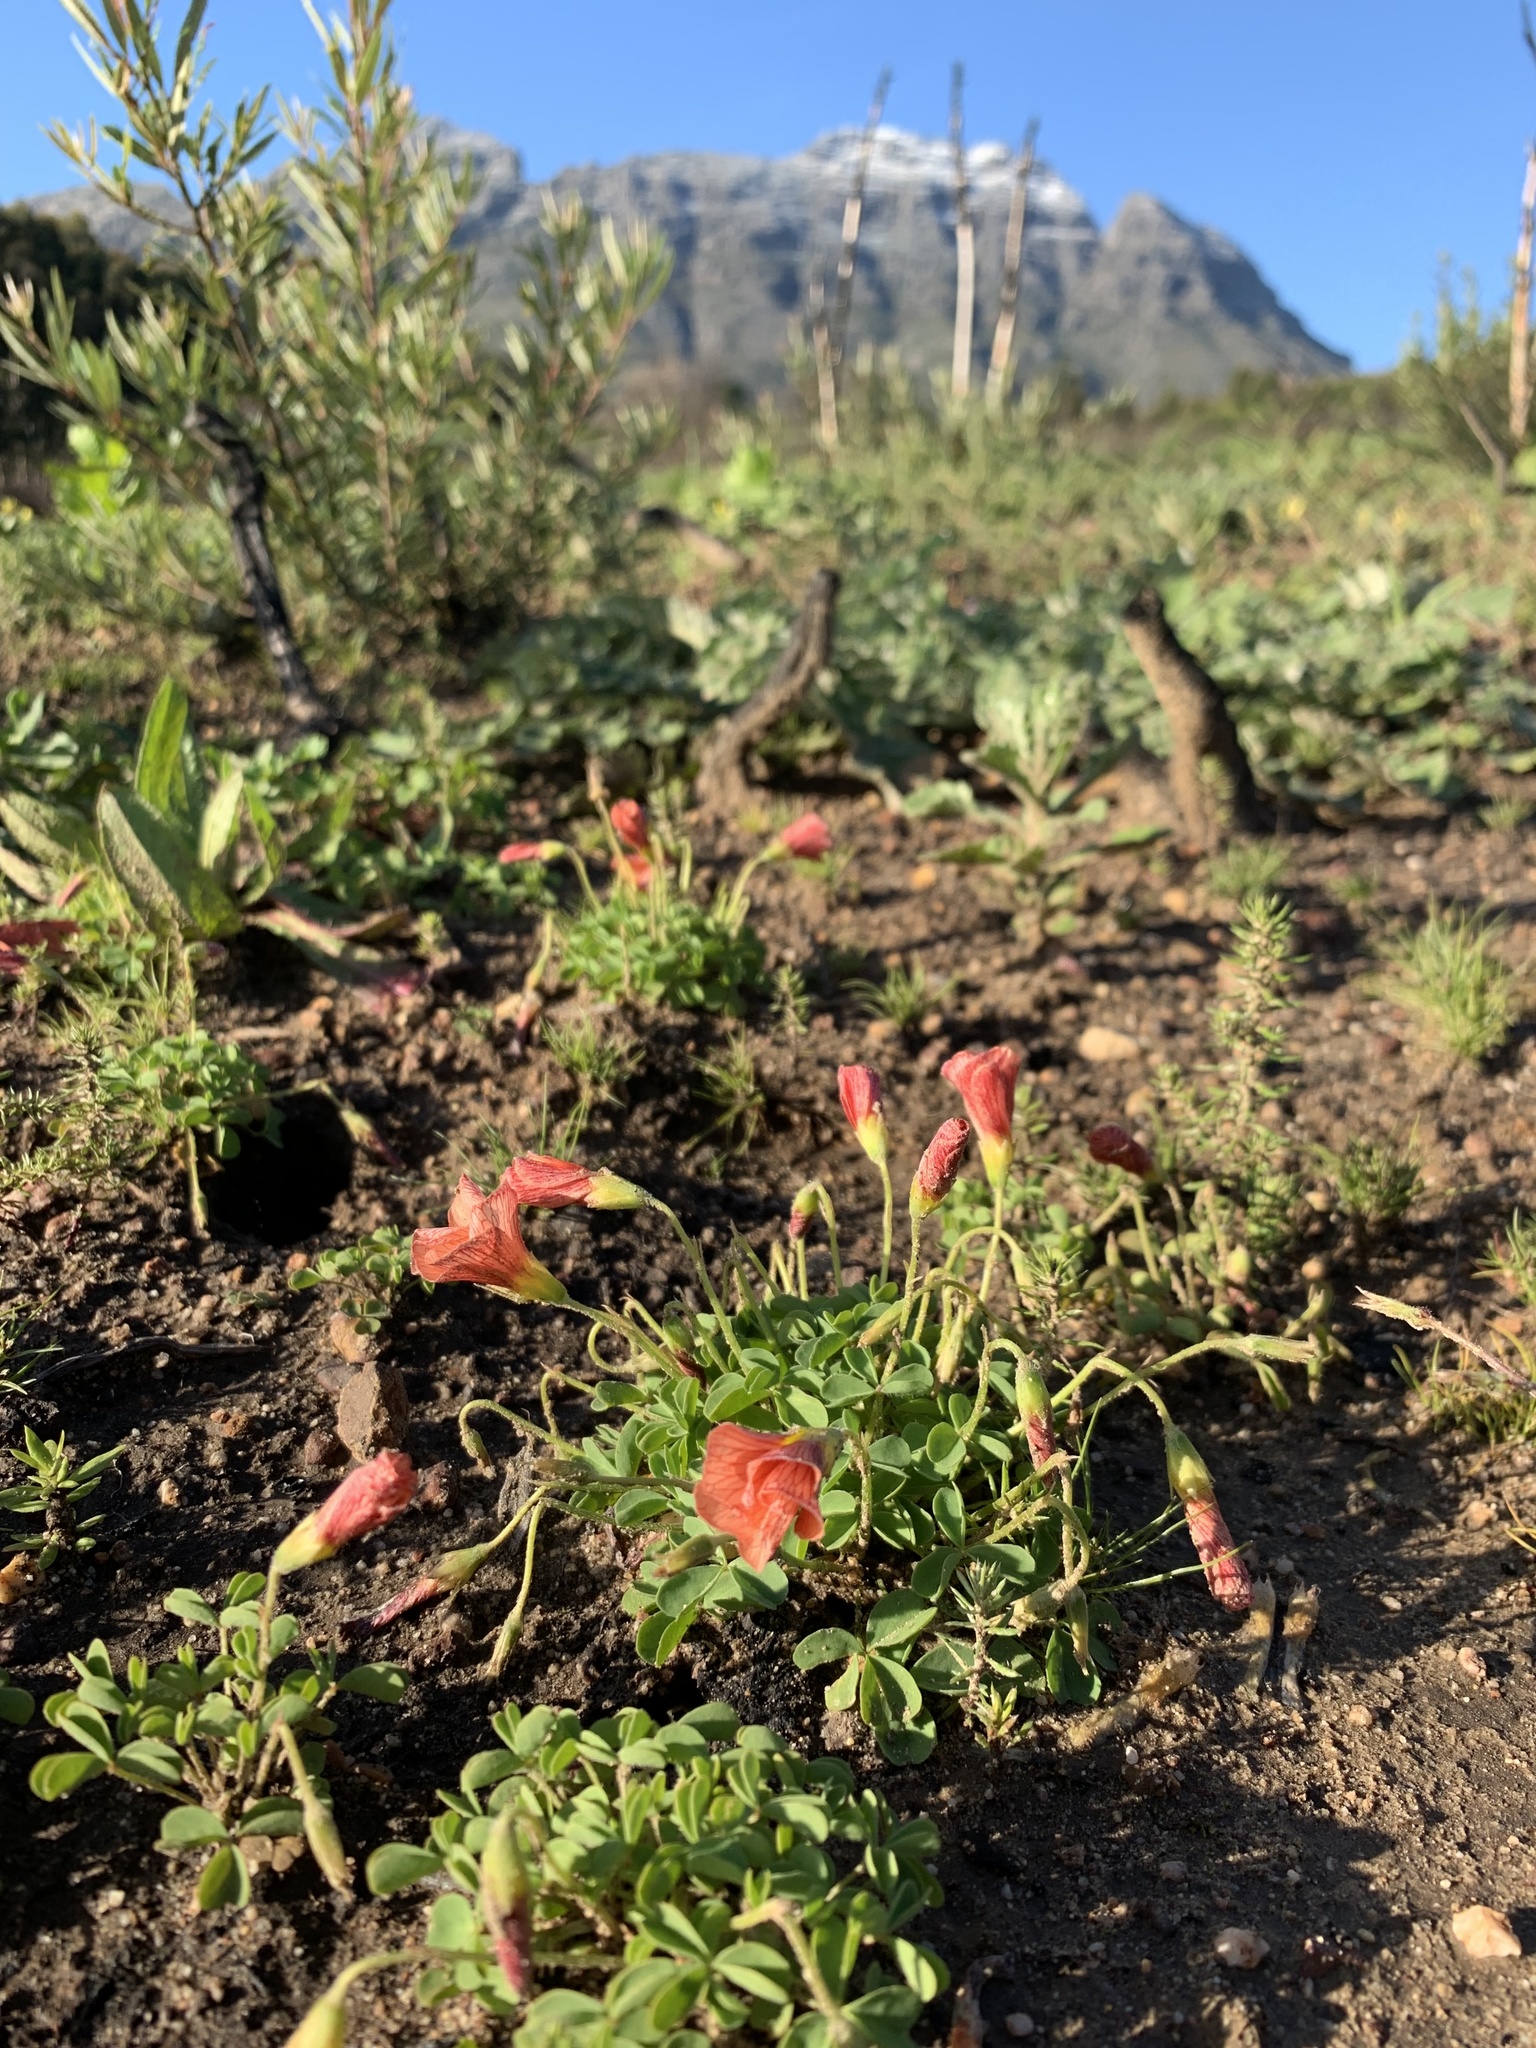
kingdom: Plantae
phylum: Tracheophyta
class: Magnoliopsida
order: Oxalidales
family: Oxalidaceae
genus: Oxalis
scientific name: Oxalis obtusa
